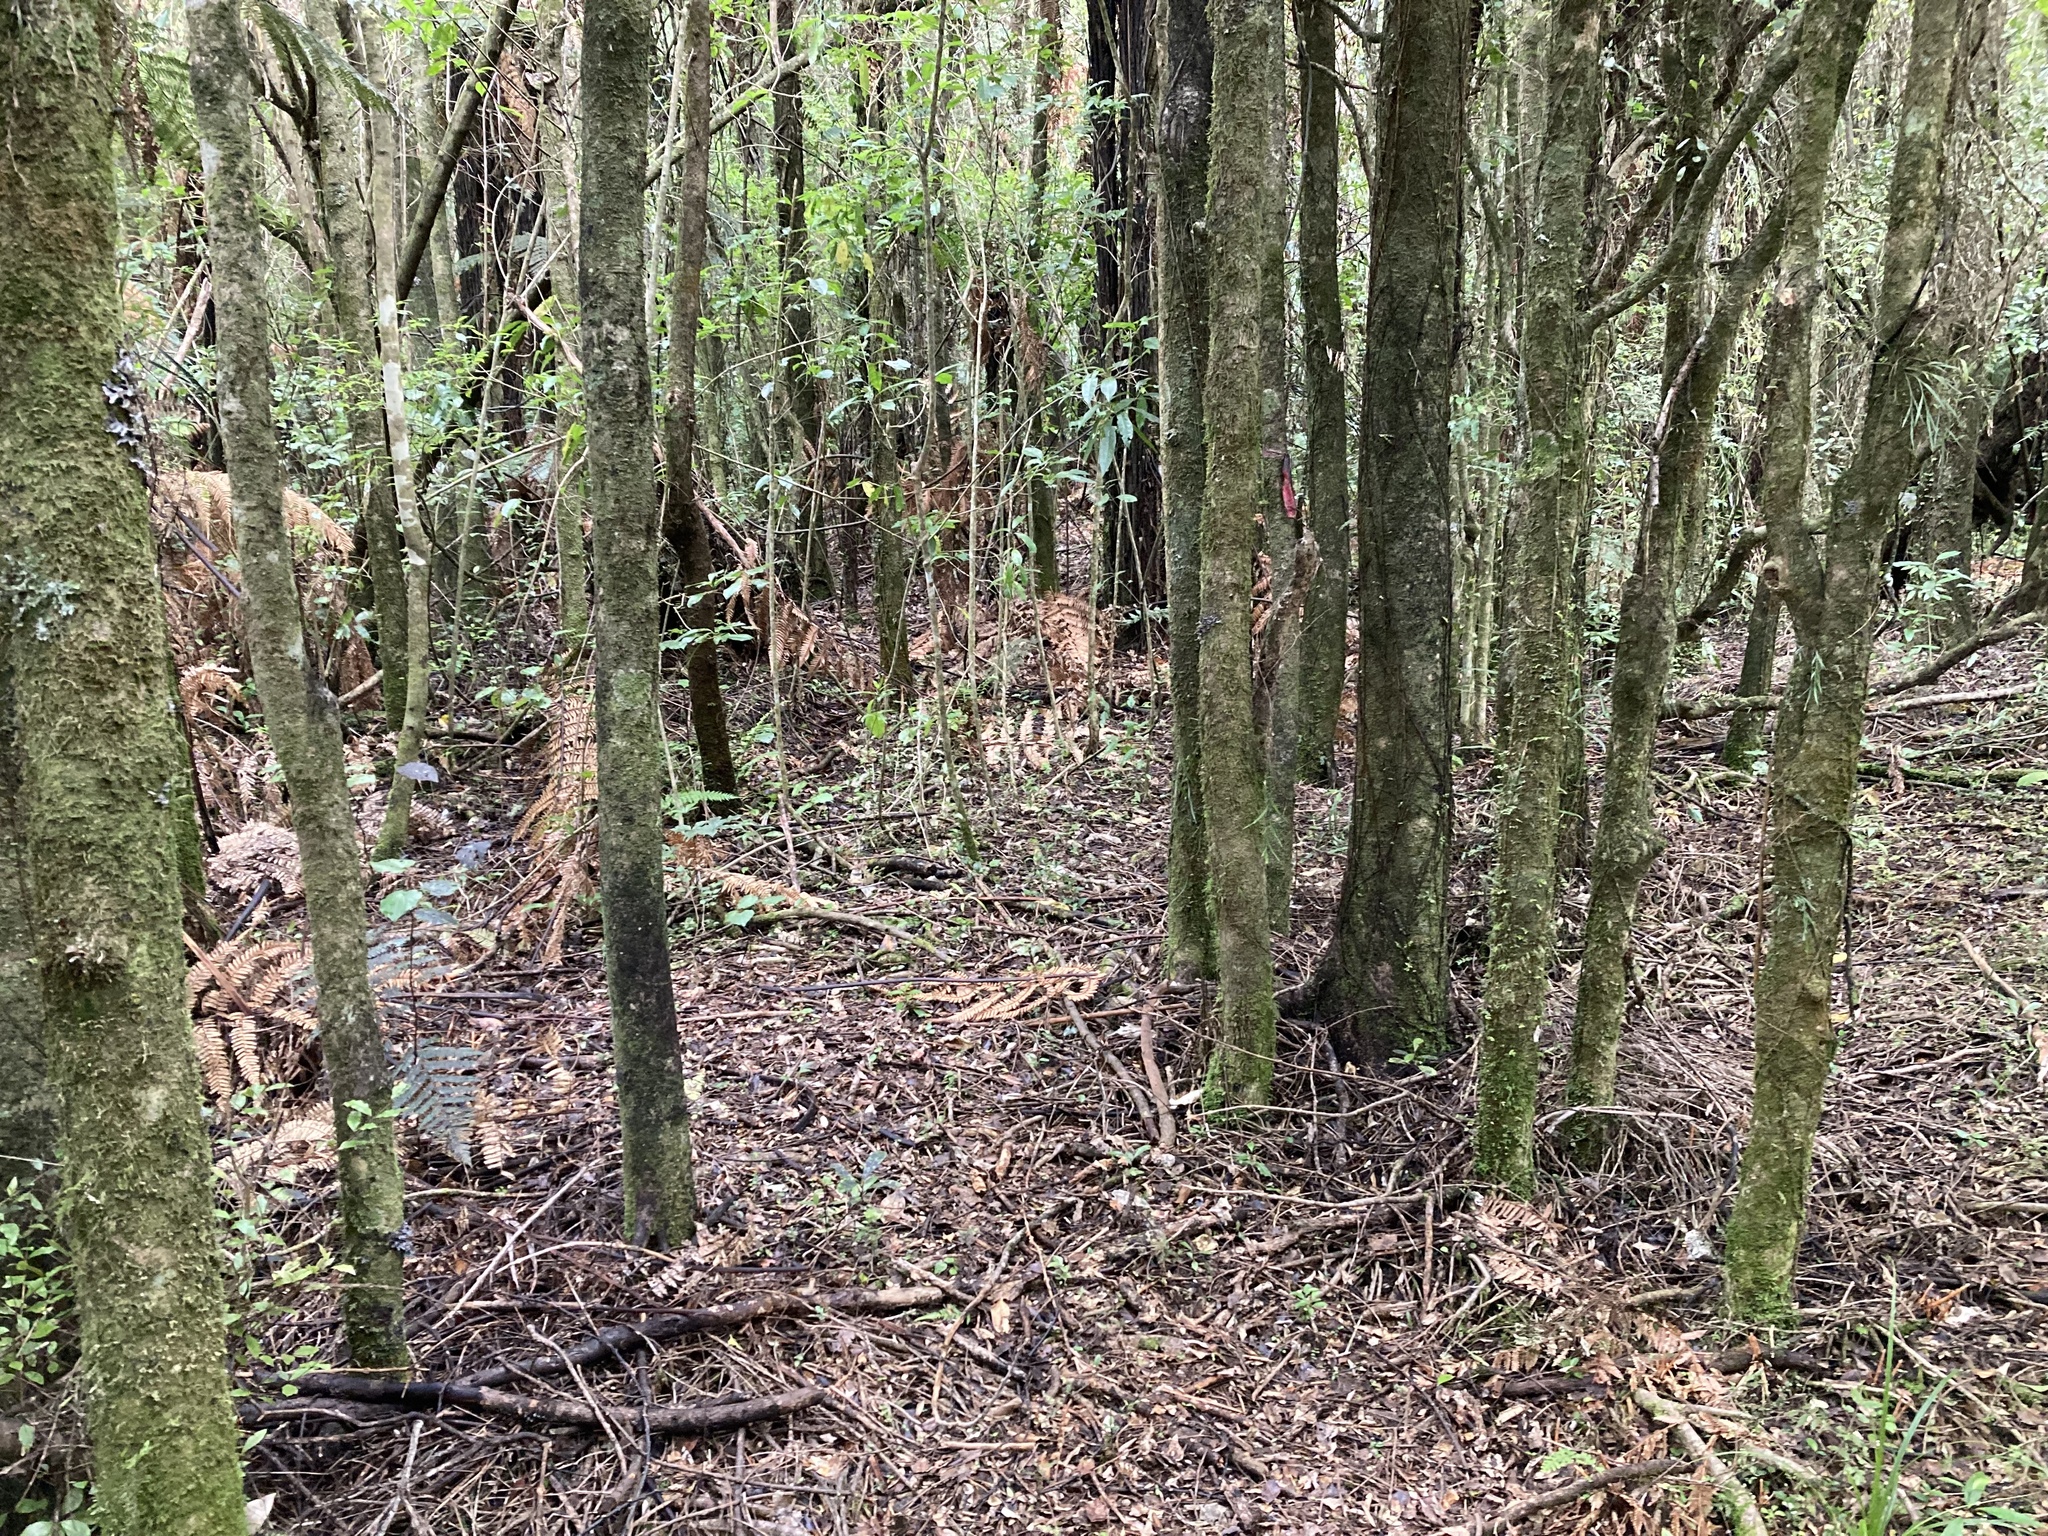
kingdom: Plantae
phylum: Tracheophyta
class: Magnoliopsida
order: Myrtales
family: Myrtaceae
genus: Syzygium
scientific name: Syzygium maire
